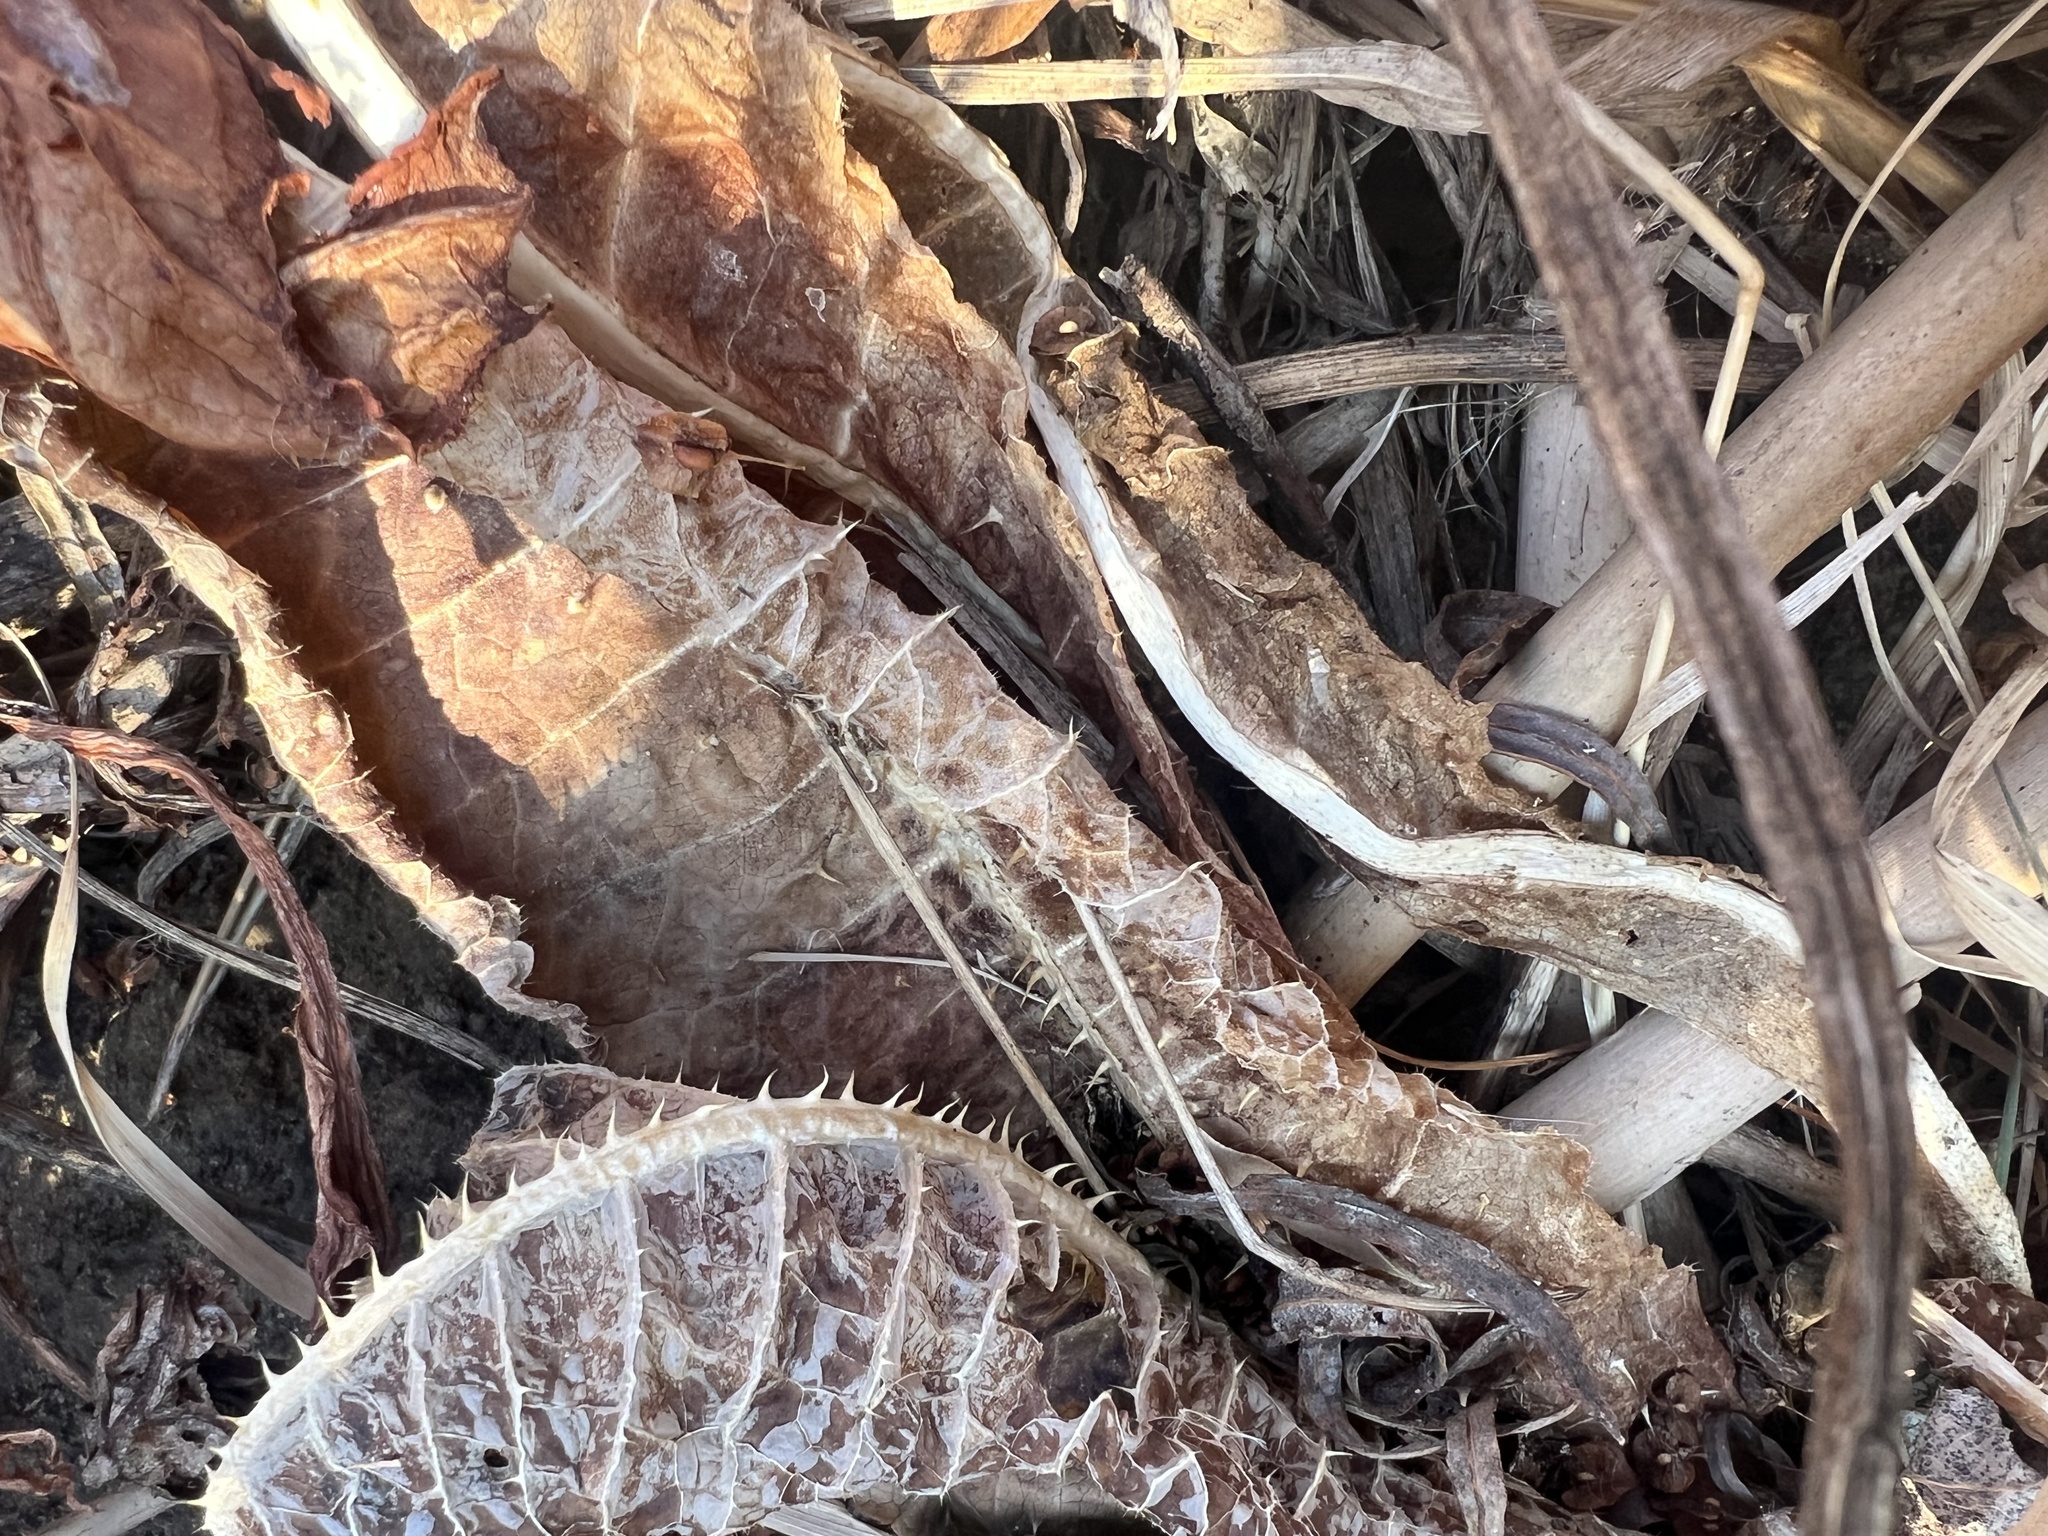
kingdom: Plantae
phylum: Tracheophyta
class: Magnoliopsida
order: Dipsacales
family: Caprifoliaceae
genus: Dipsacus
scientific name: Dipsacus fullonum
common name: Teasel
